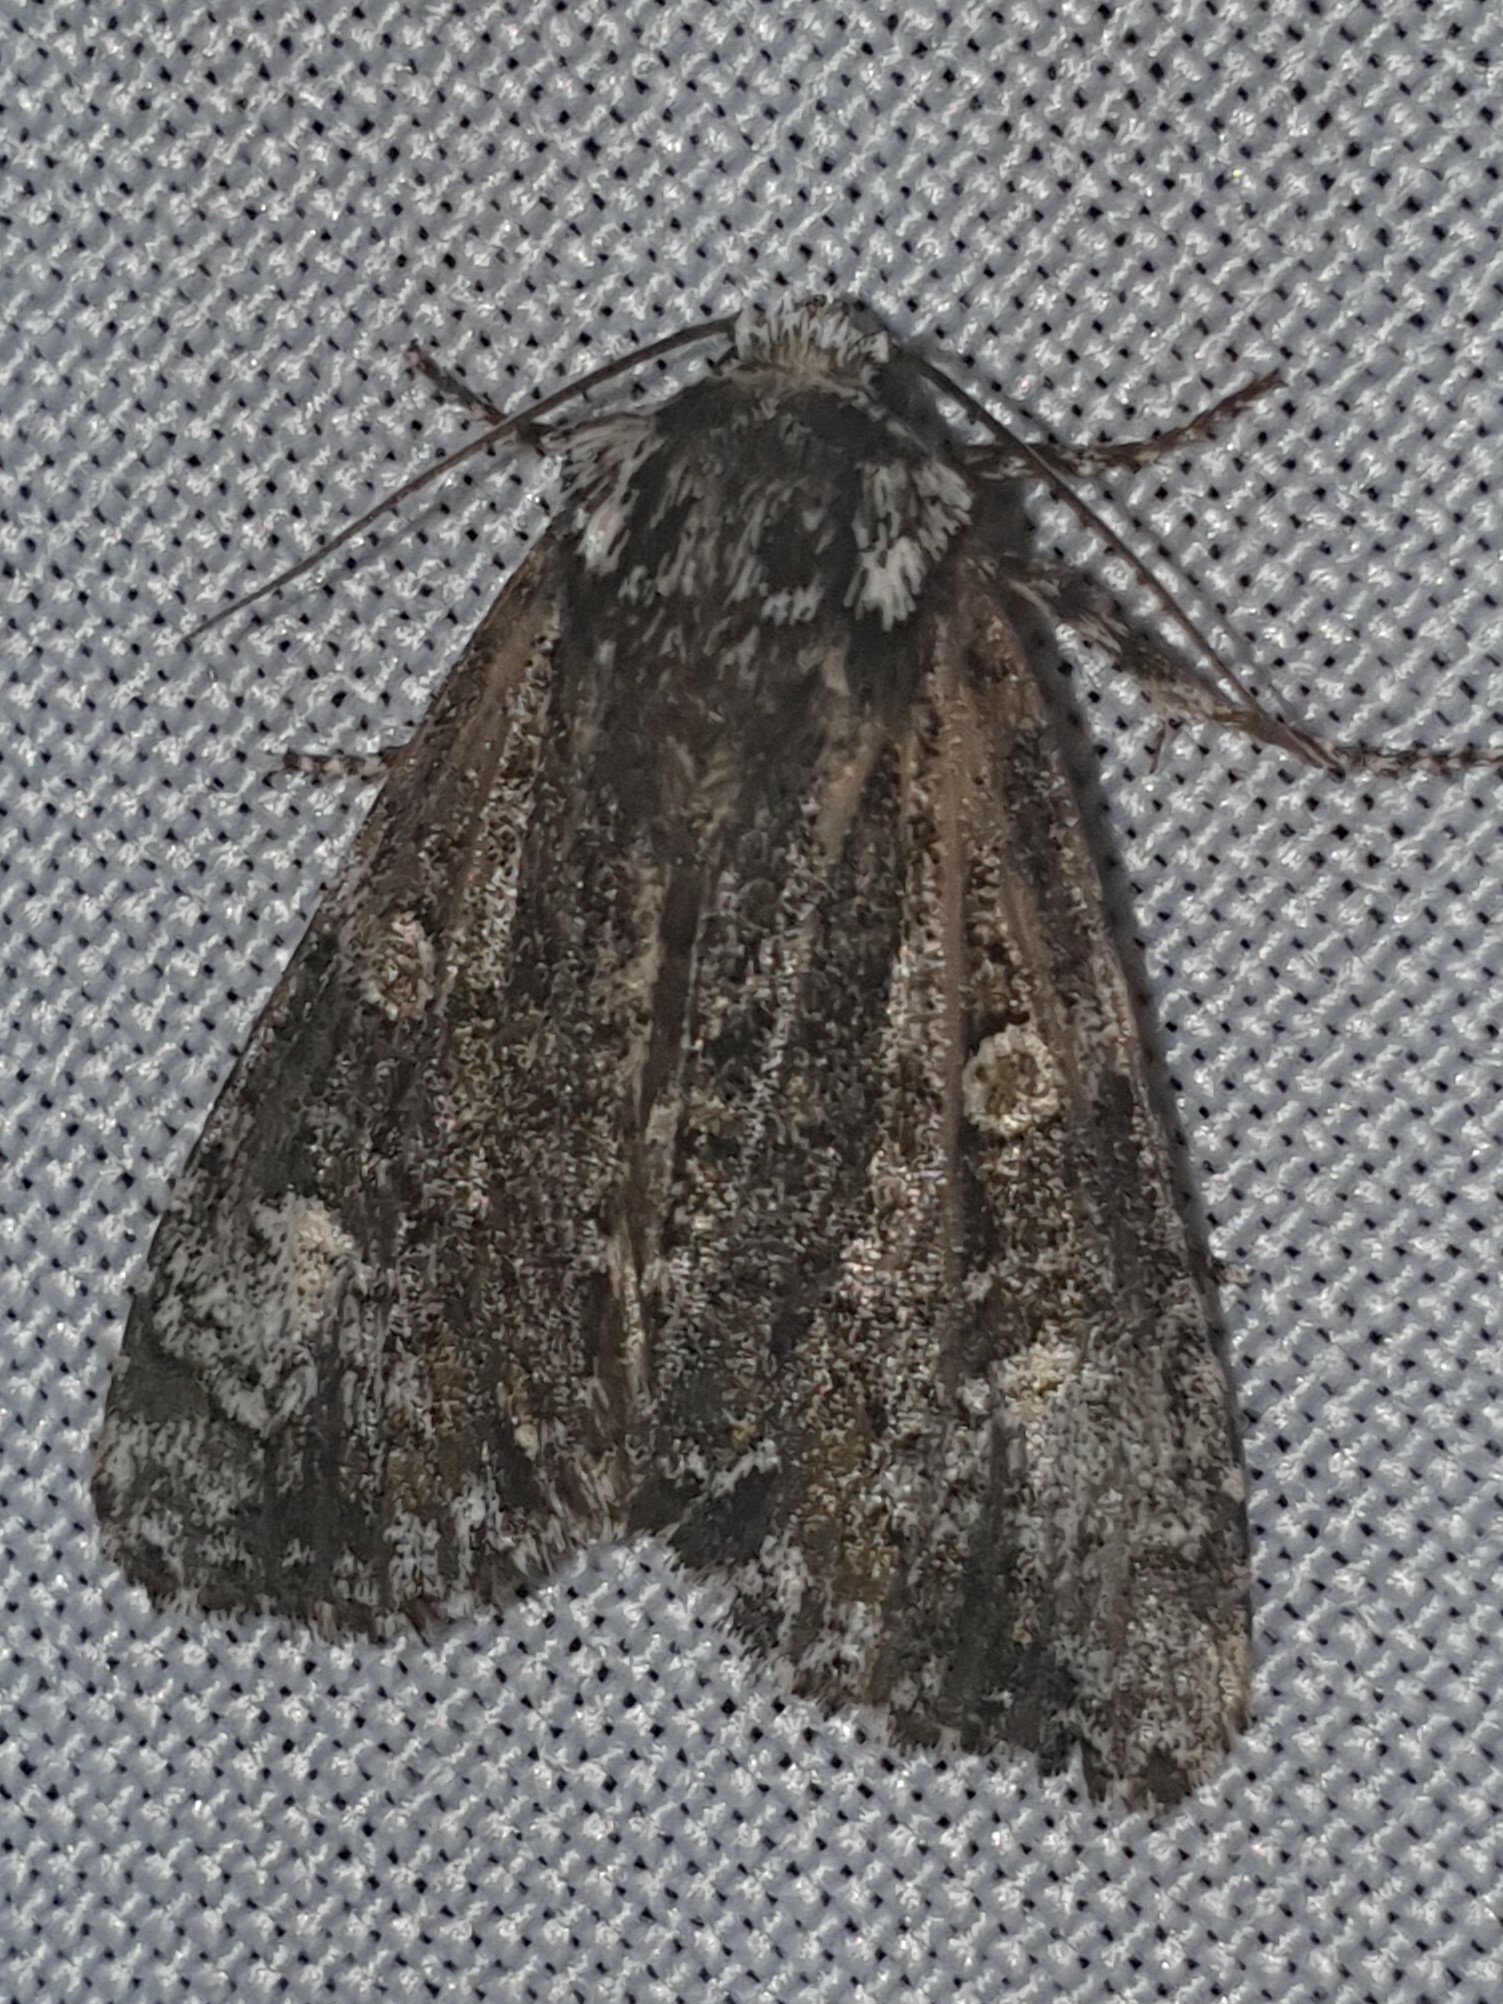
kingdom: Animalia
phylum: Arthropoda
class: Insecta
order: Lepidoptera
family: Noctuidae
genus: Craniophora
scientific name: Craniophora ligustri
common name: Coronet
